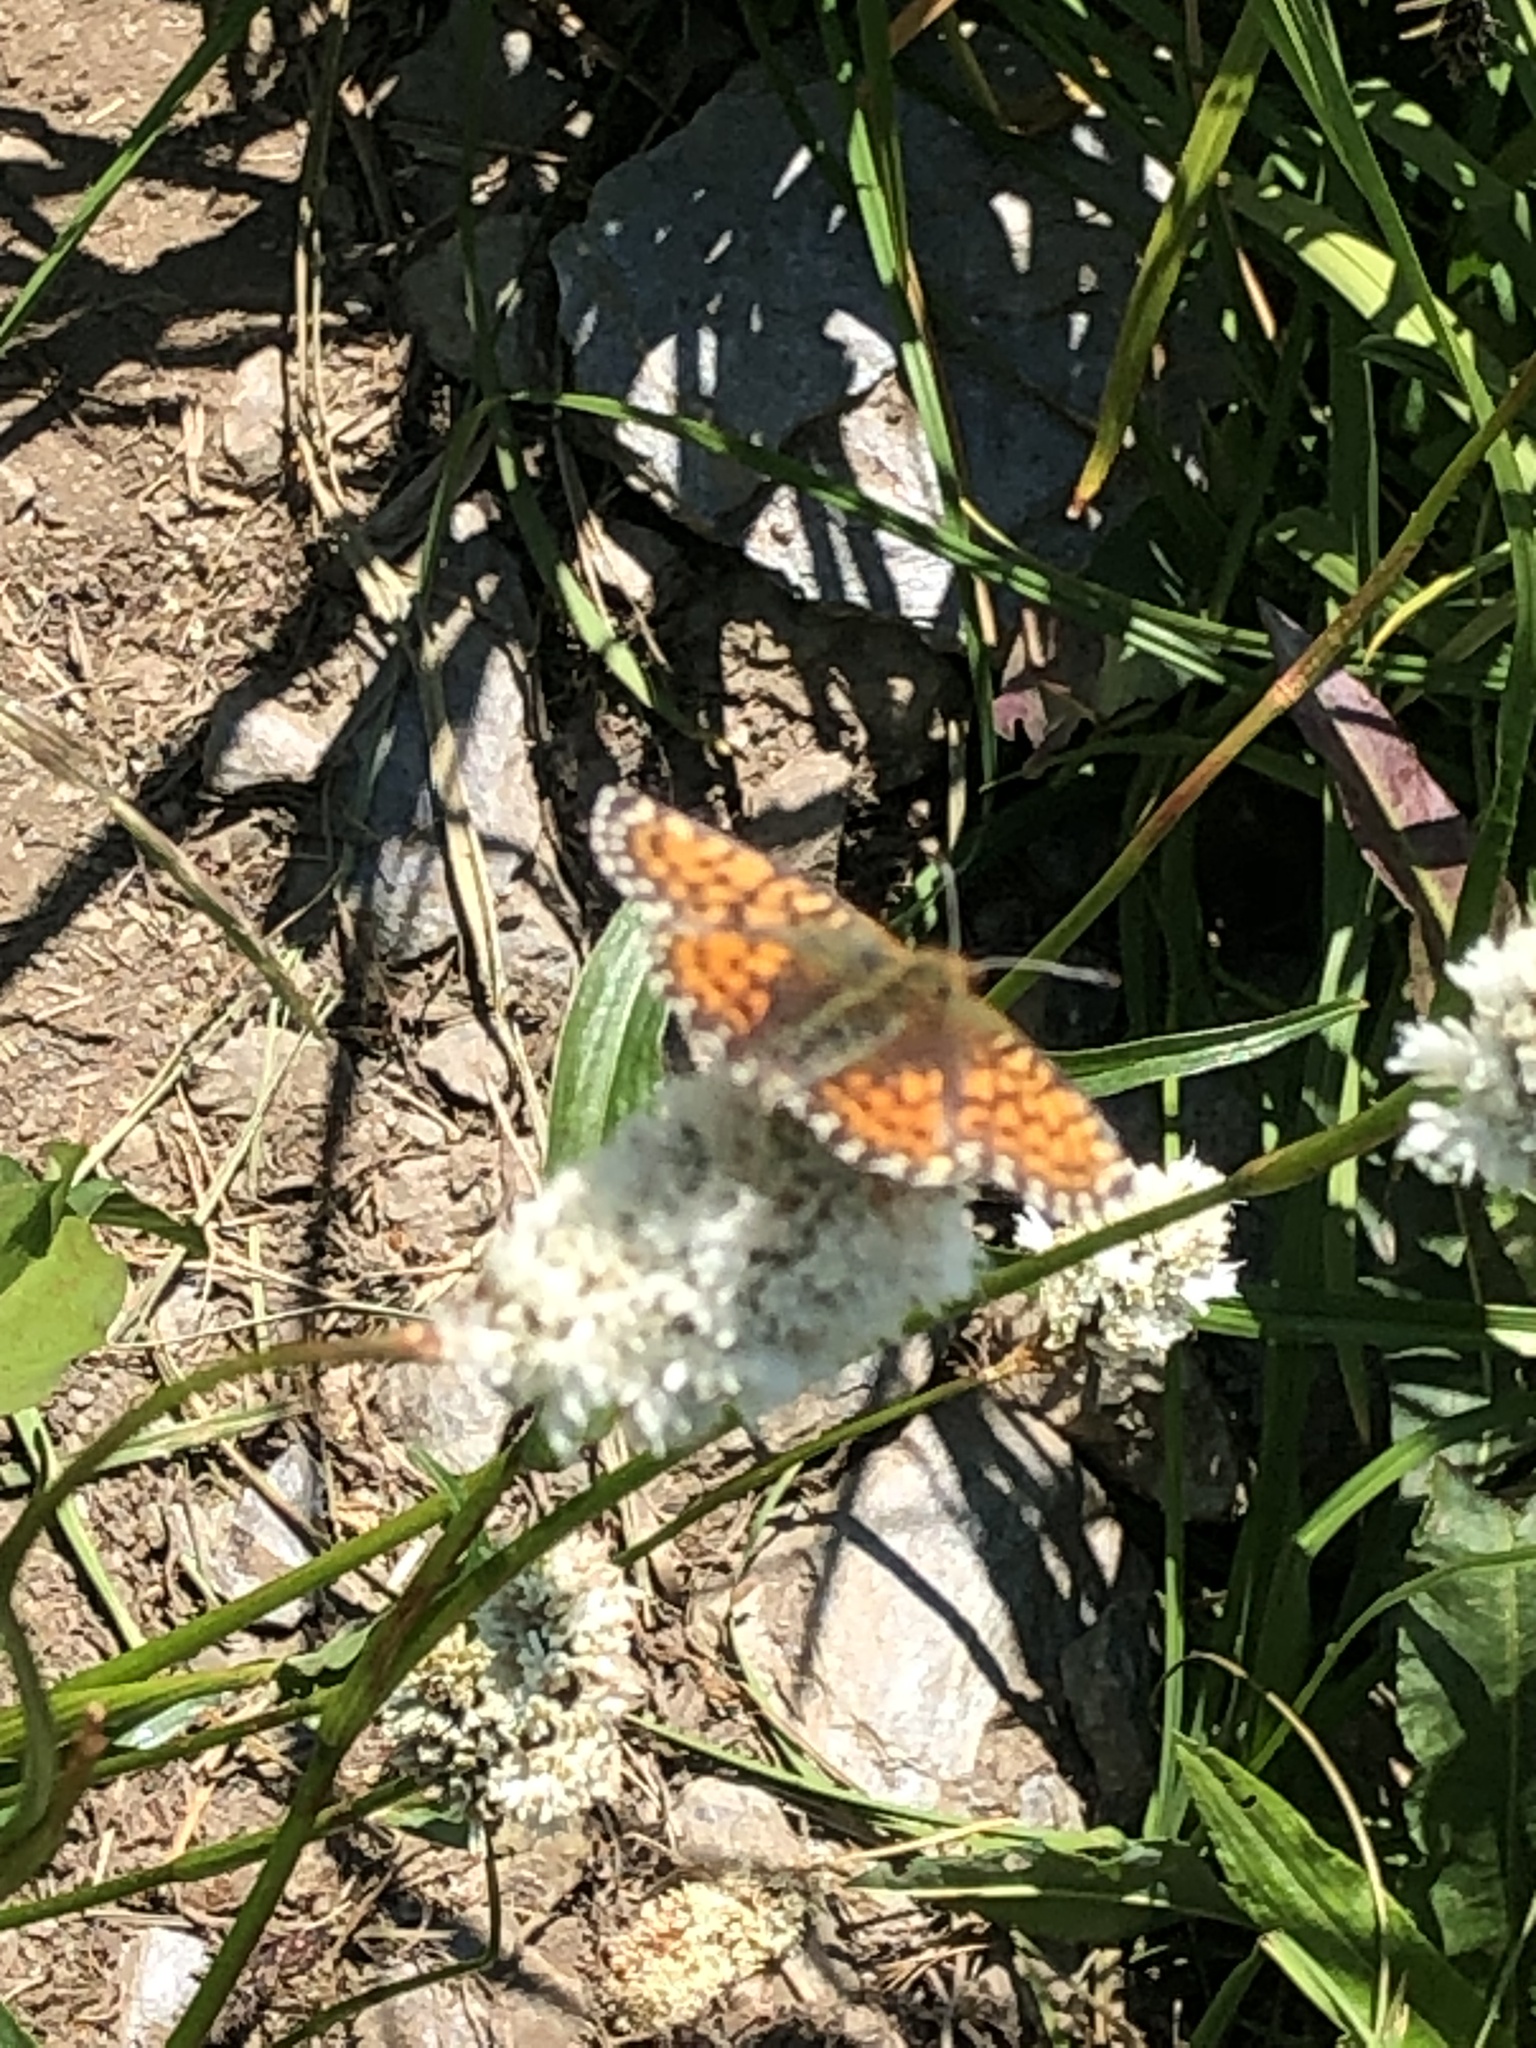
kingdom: Animalia
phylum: Arthropoda
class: Insecta
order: Lepidoptera
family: Nymphalidae
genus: Boloria
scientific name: Boloria chariclea
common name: Arctic fritillary
